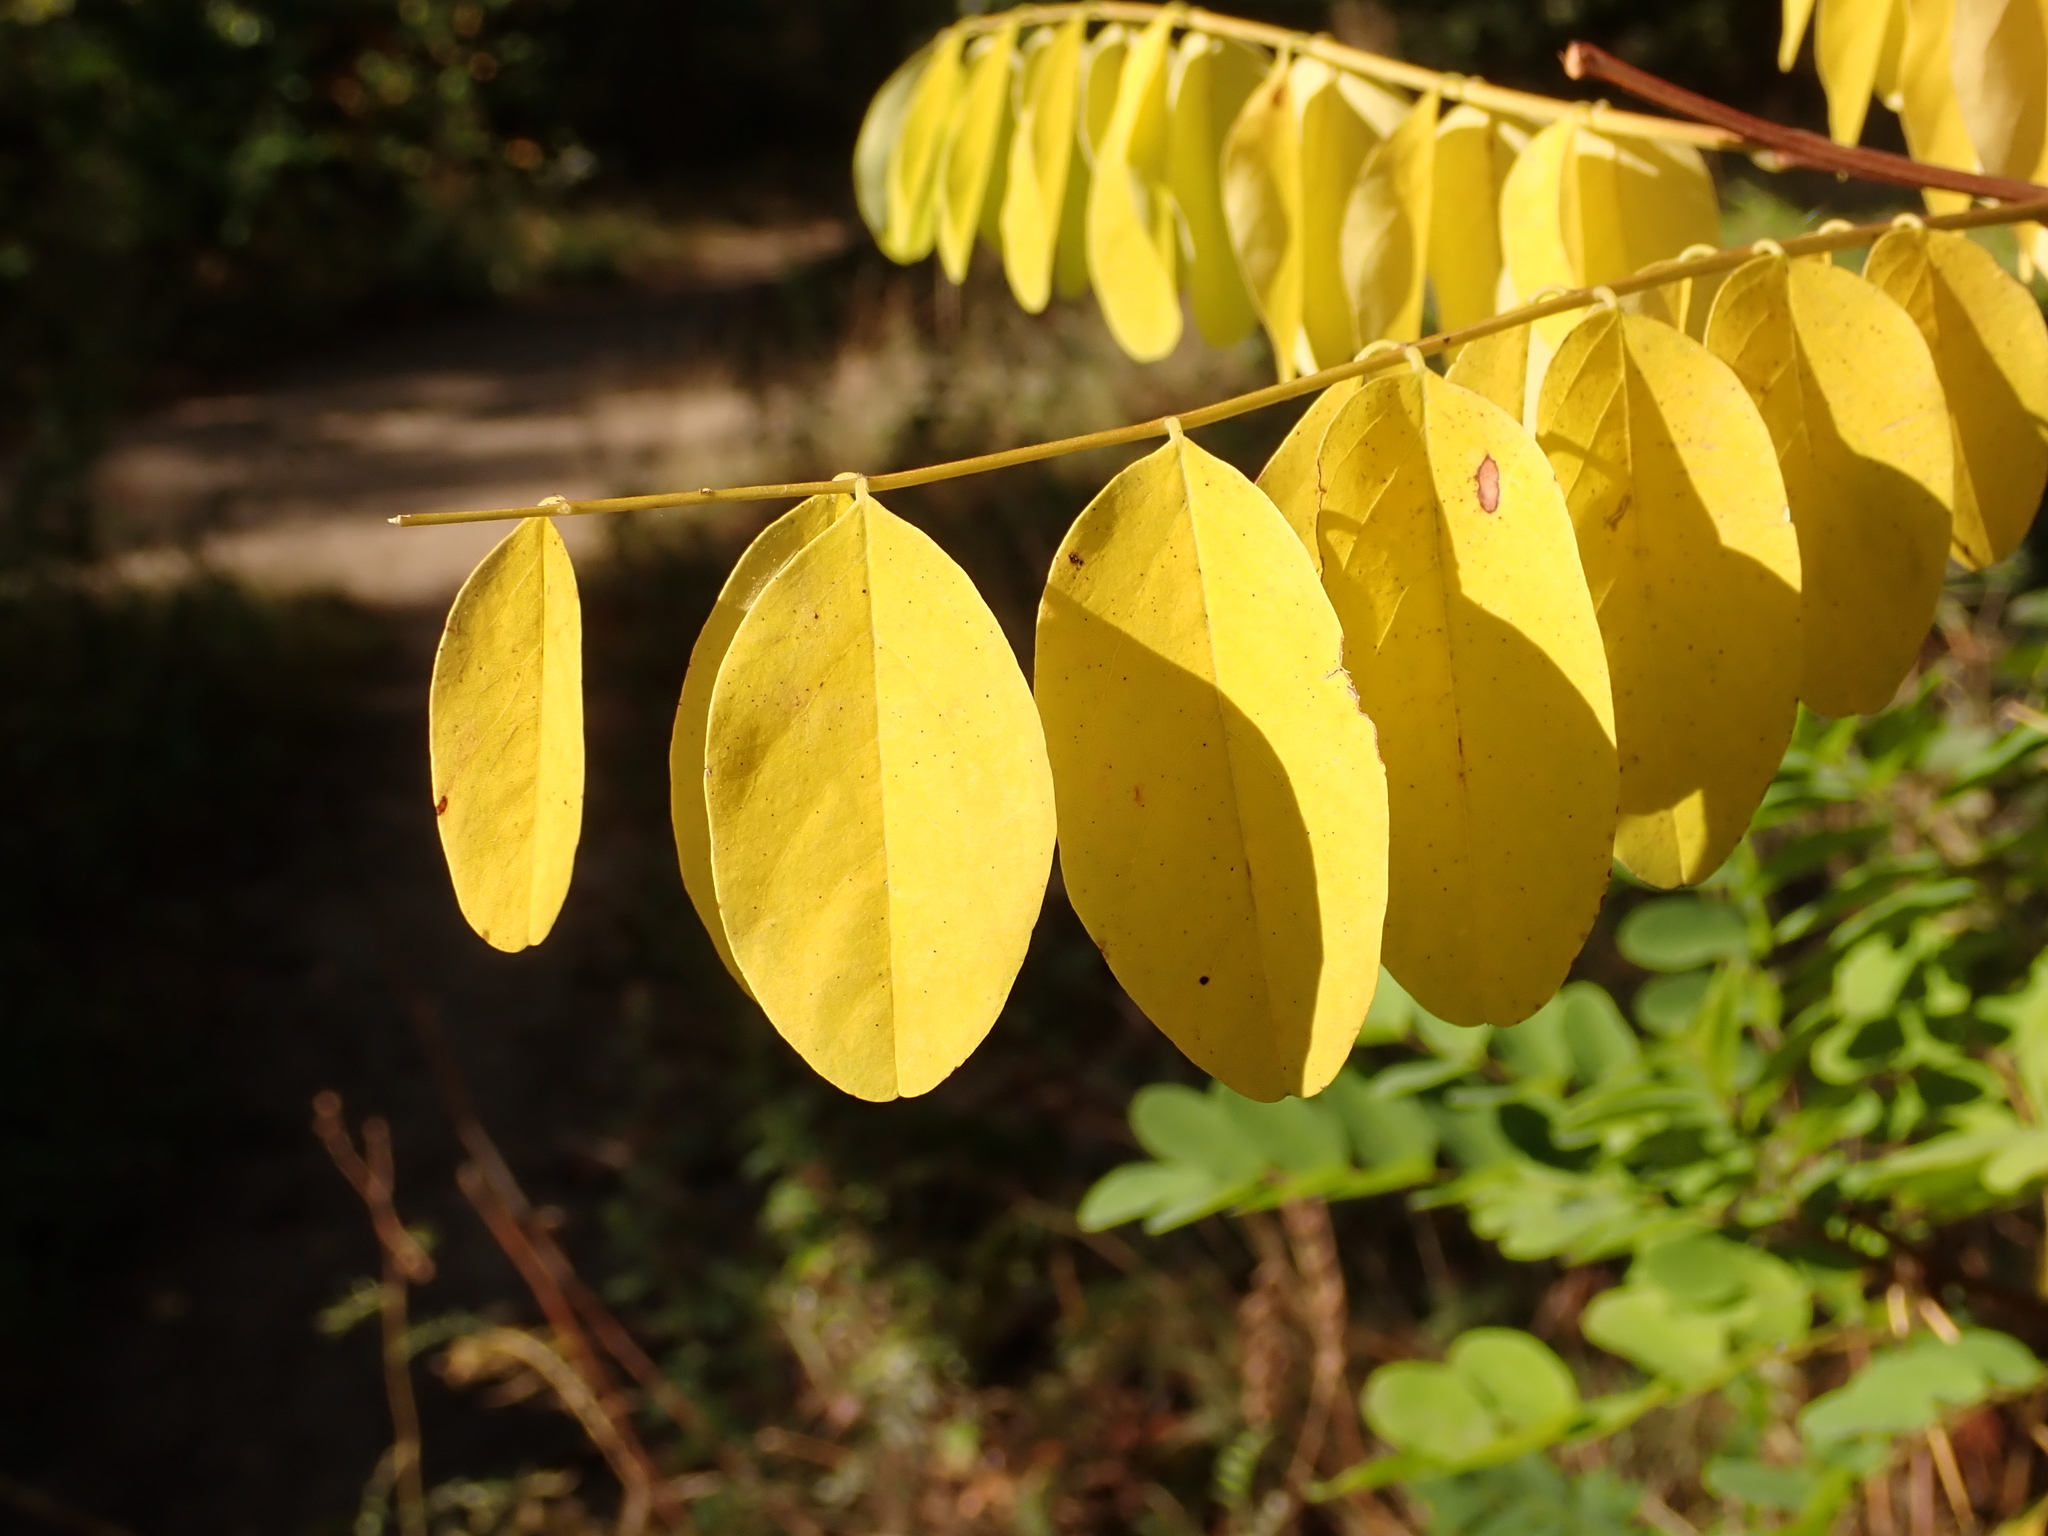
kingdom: Plantae
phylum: Tracheophyta
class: Magnoliopsida
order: Fabales
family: Fabaceae
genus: Robinia
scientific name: Robinia pseudoacacia
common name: Black locust
